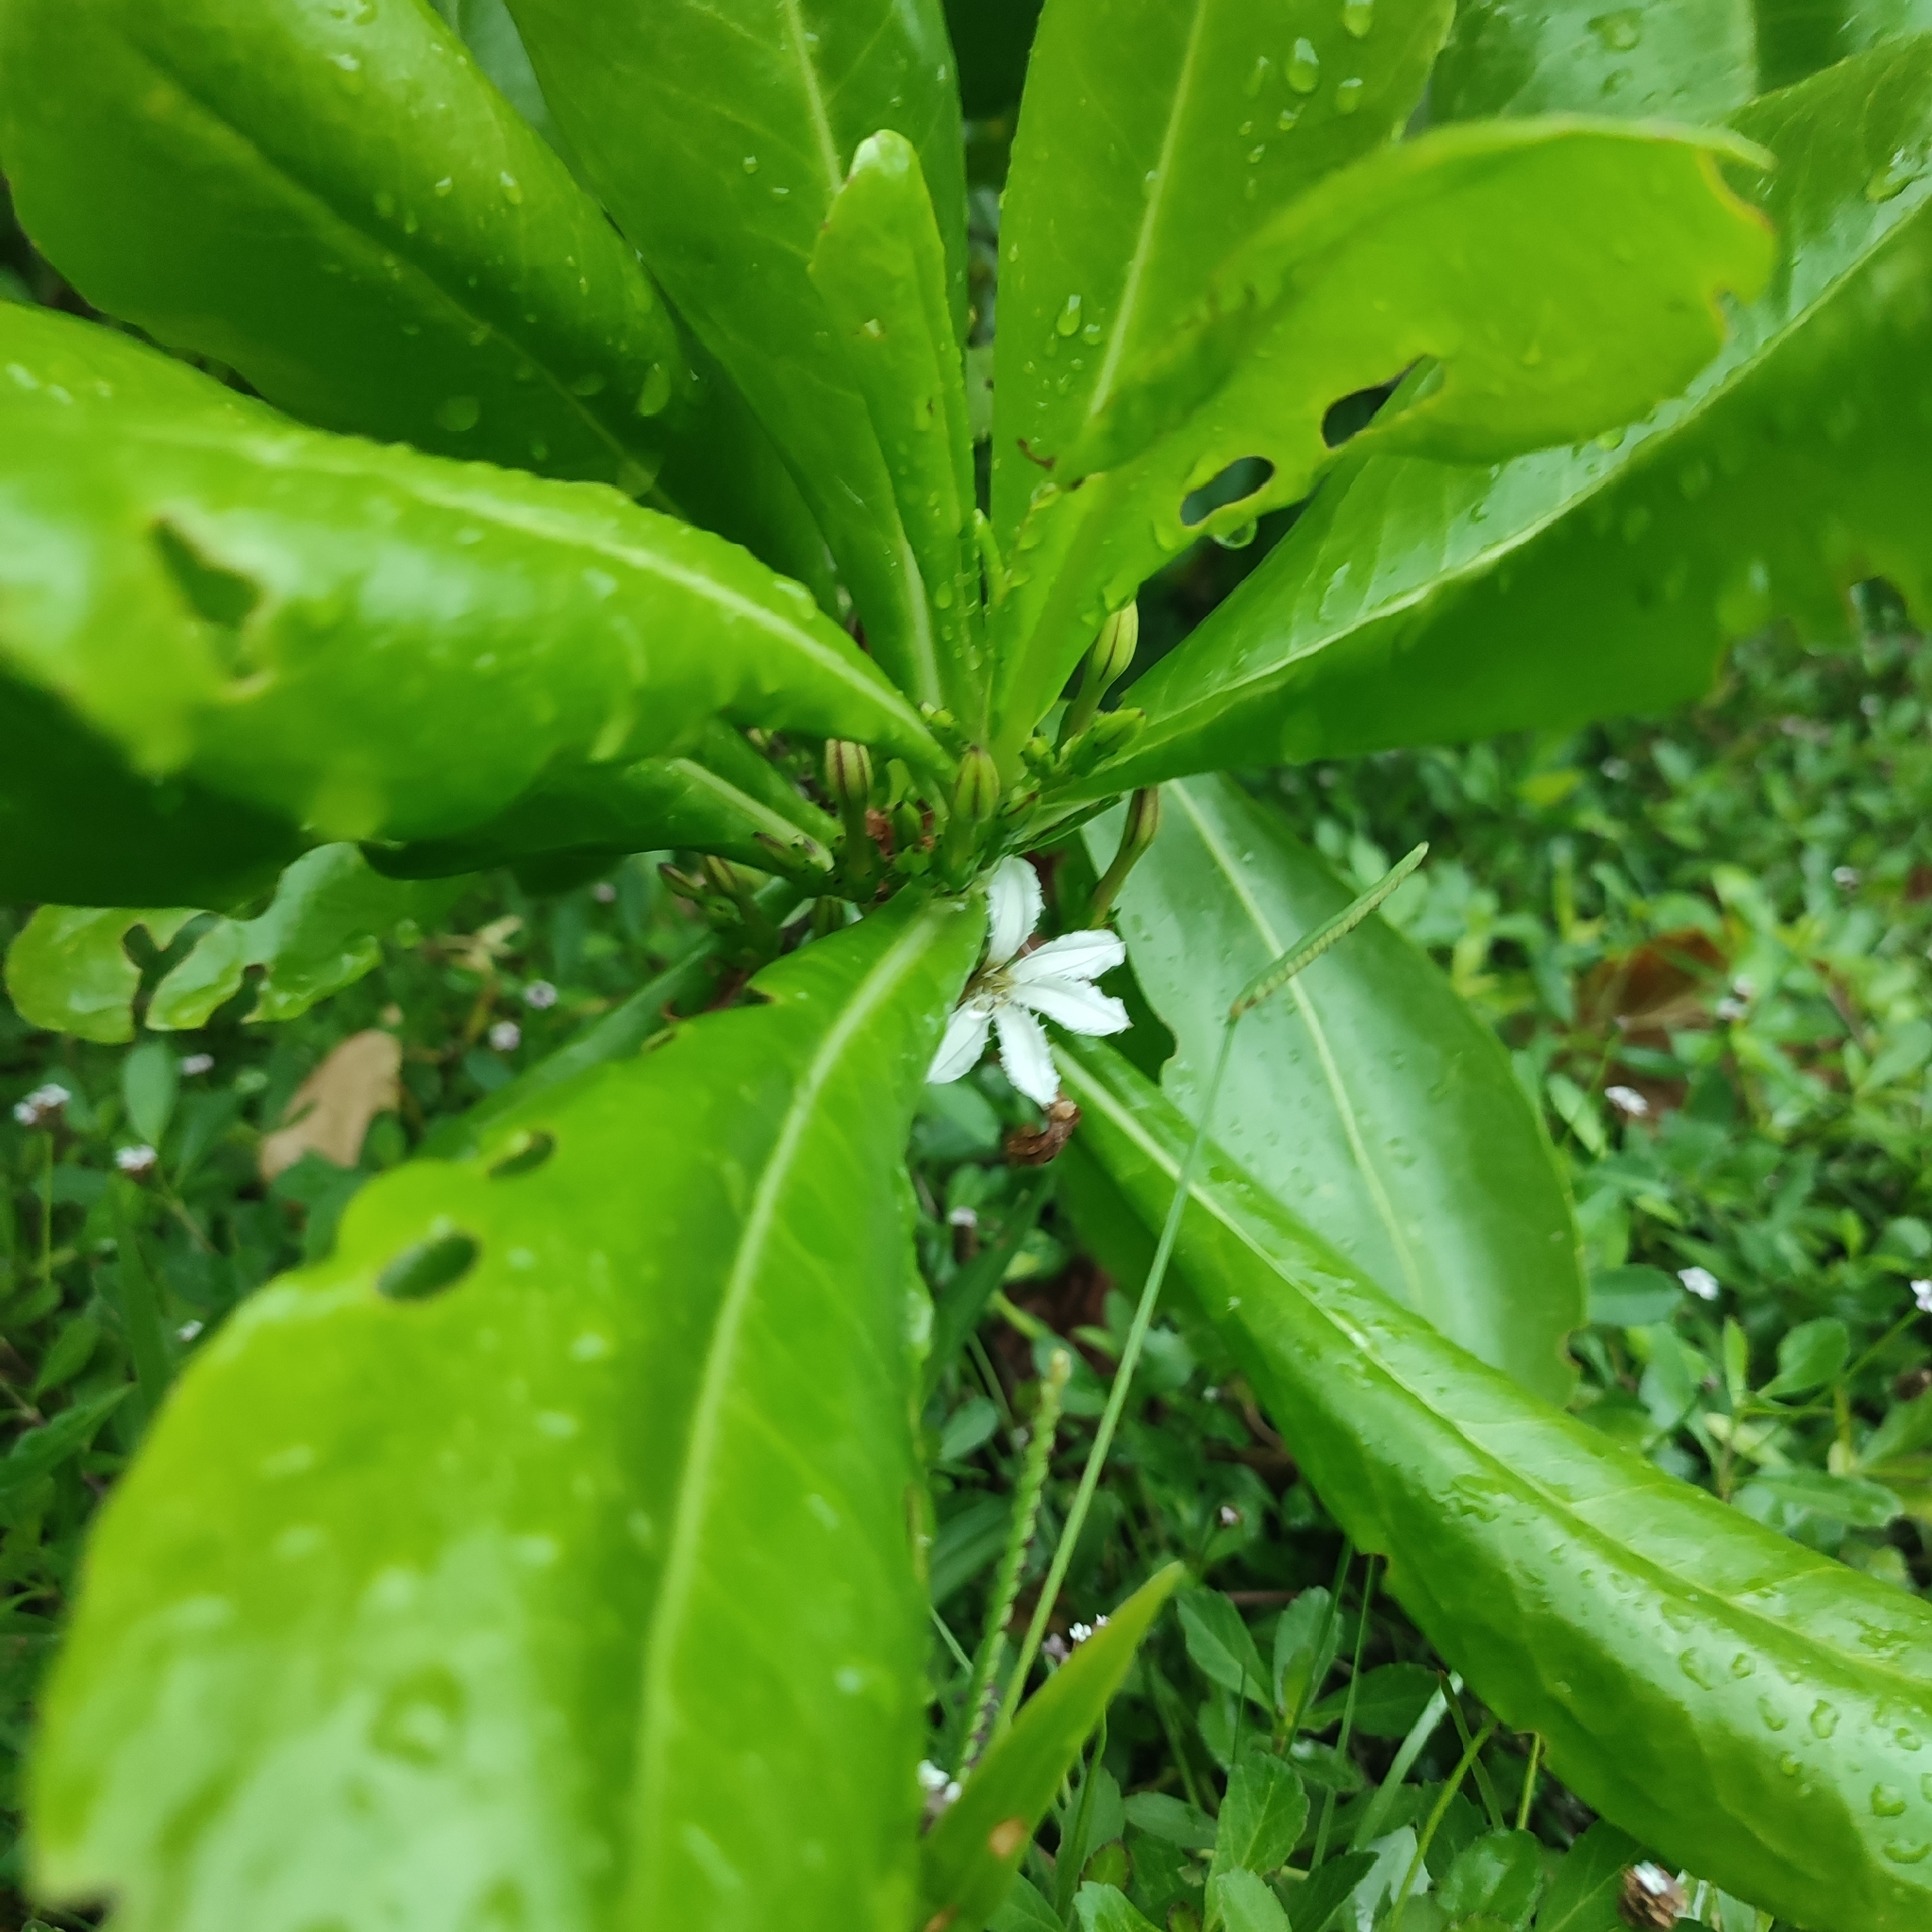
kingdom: Plantae
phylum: Tracheophyta
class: Magnoliopsida
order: Asterales
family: Goodeniaceae
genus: Scaevola
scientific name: Scaevola taccada
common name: Sea lettucetree
